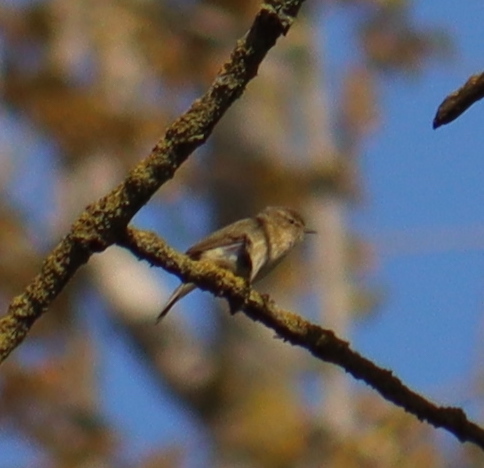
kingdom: Animalia
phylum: Chordata
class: Aves
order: Passeriformes
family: Phylloscopidae
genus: Phylloscopus
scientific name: Phylloscopus collybita
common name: Common chiffchaff
